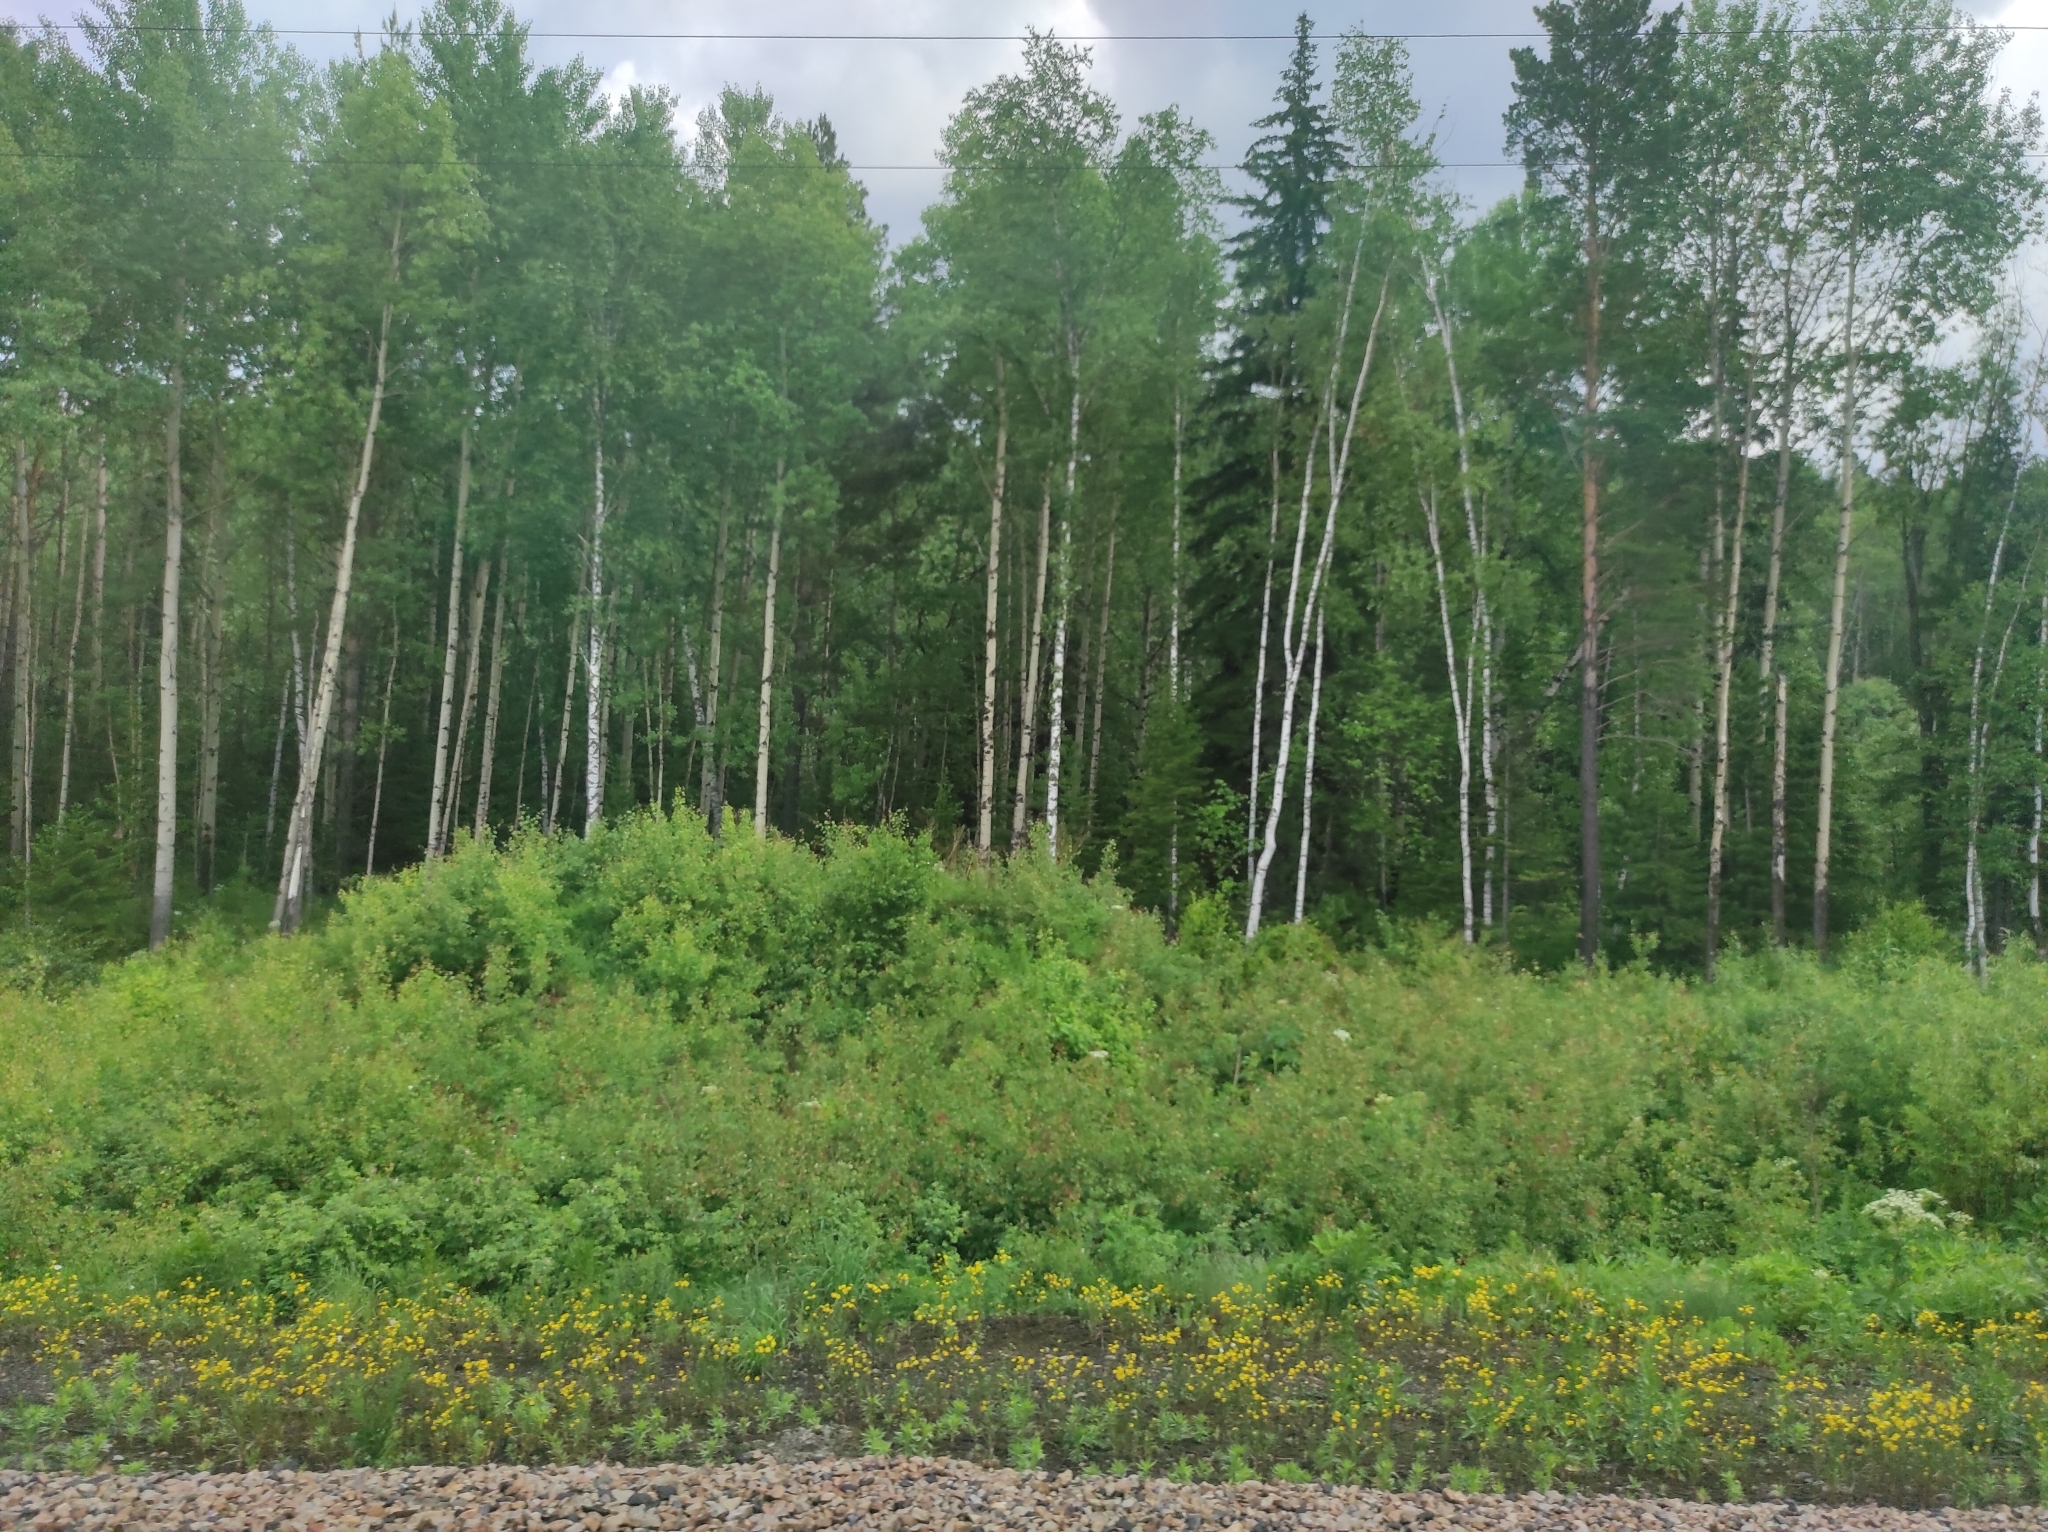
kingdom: Plantae
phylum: Tracheophyta
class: Pinopsida
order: Pinales
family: Pinaceae
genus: Pinus
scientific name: Pinus sylvestris
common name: Scots pine
